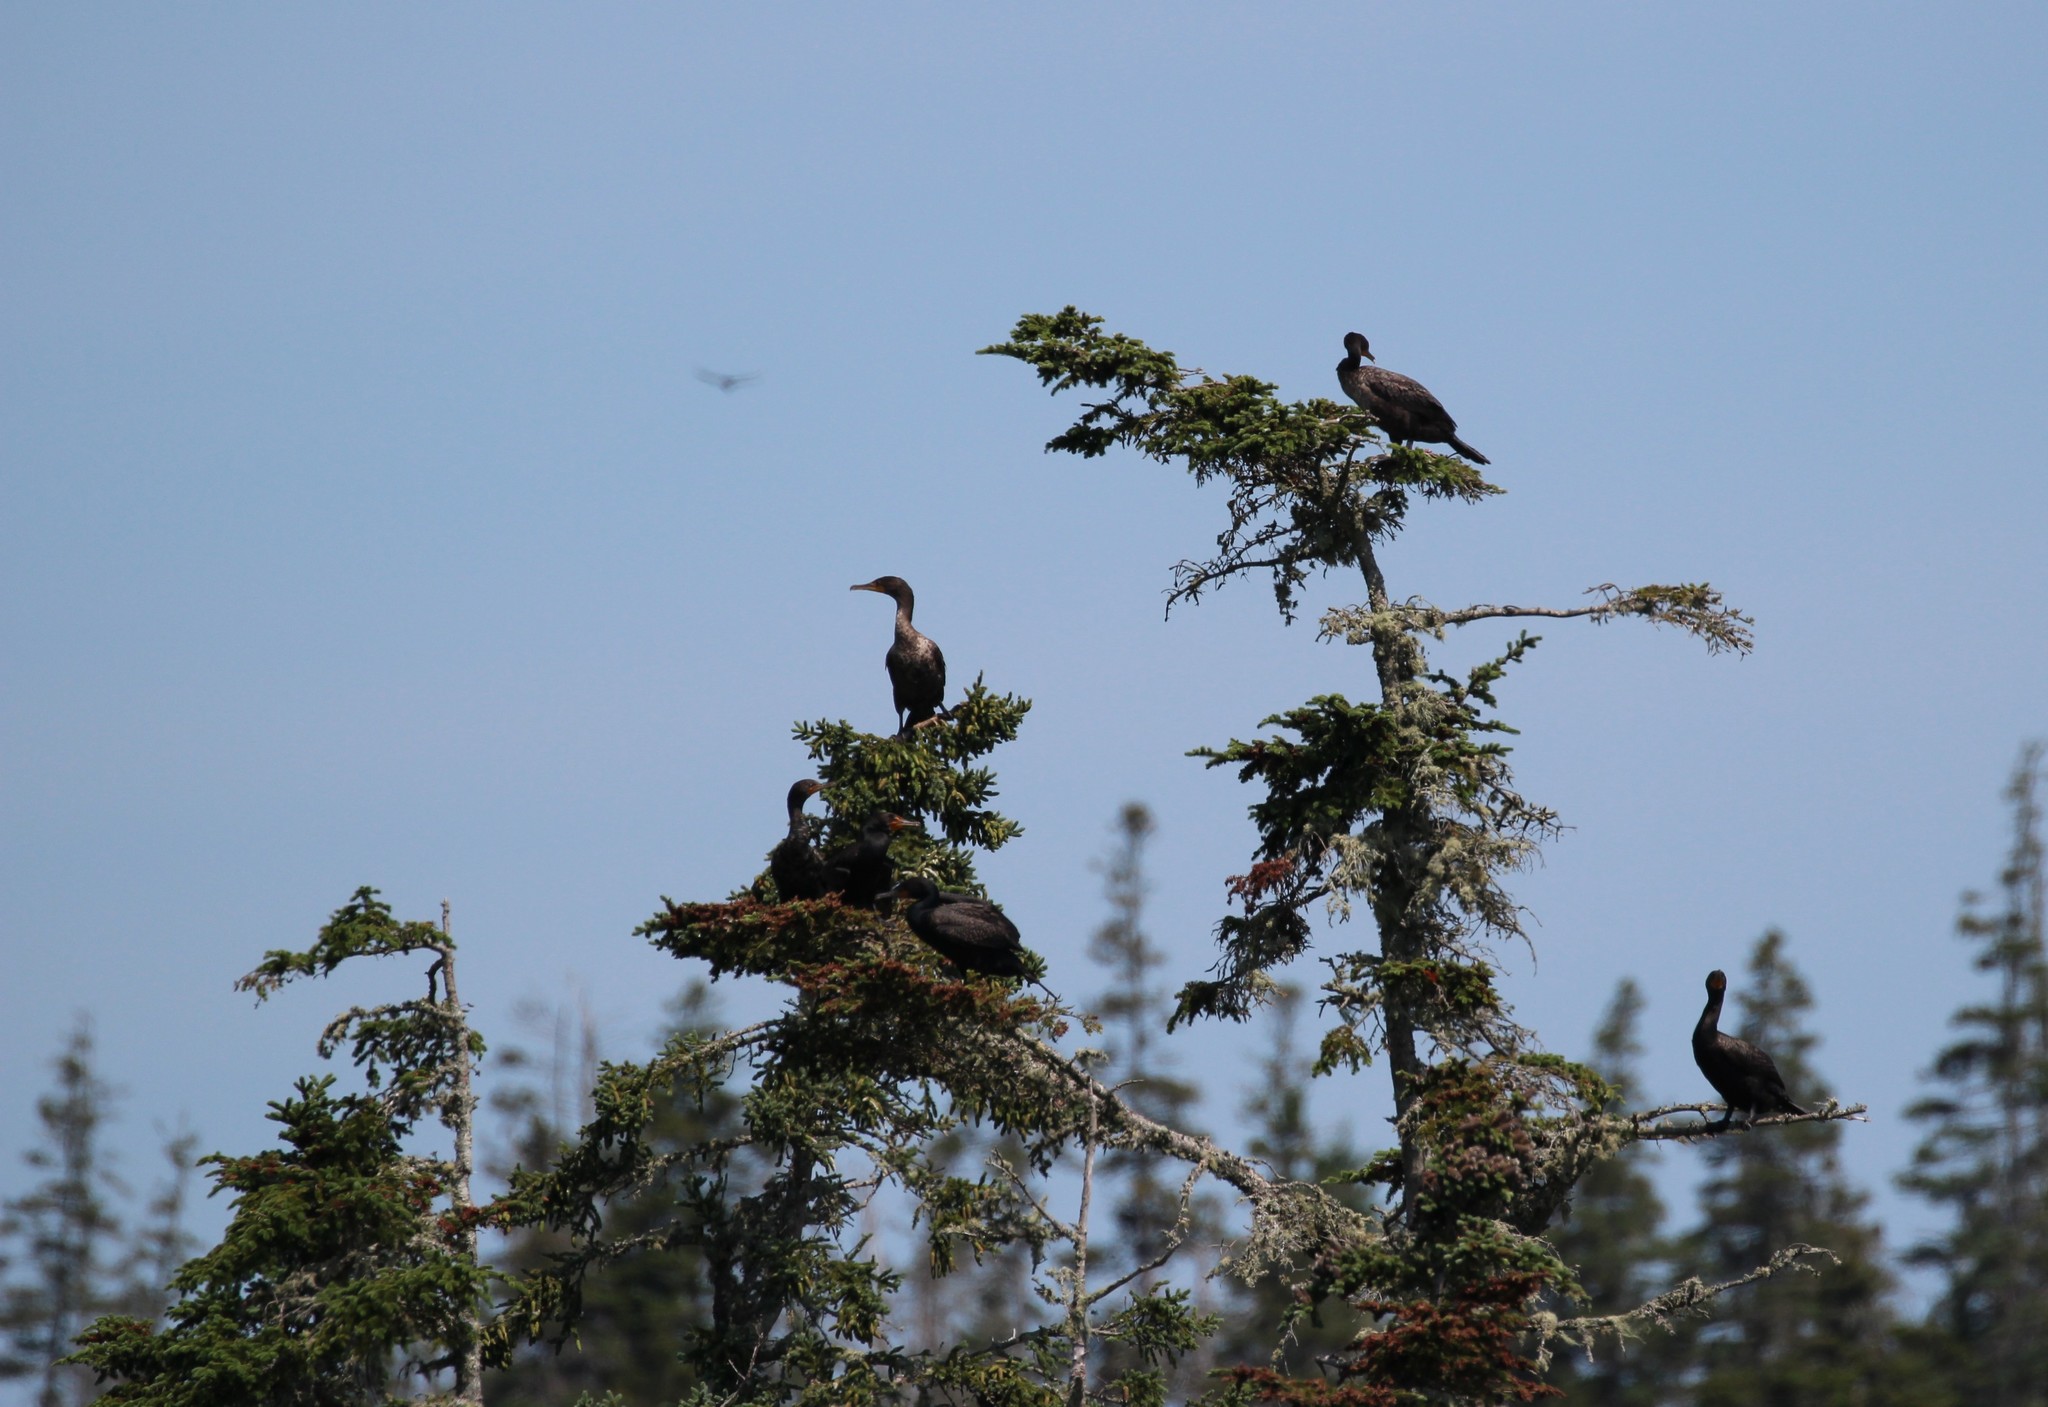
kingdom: Animalia
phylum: Chordata
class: Aves
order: Suliformes
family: Phalacrocoracidae
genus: Phalacrocorax
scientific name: Phalacrocorax auritus
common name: Double-crested cormorant
